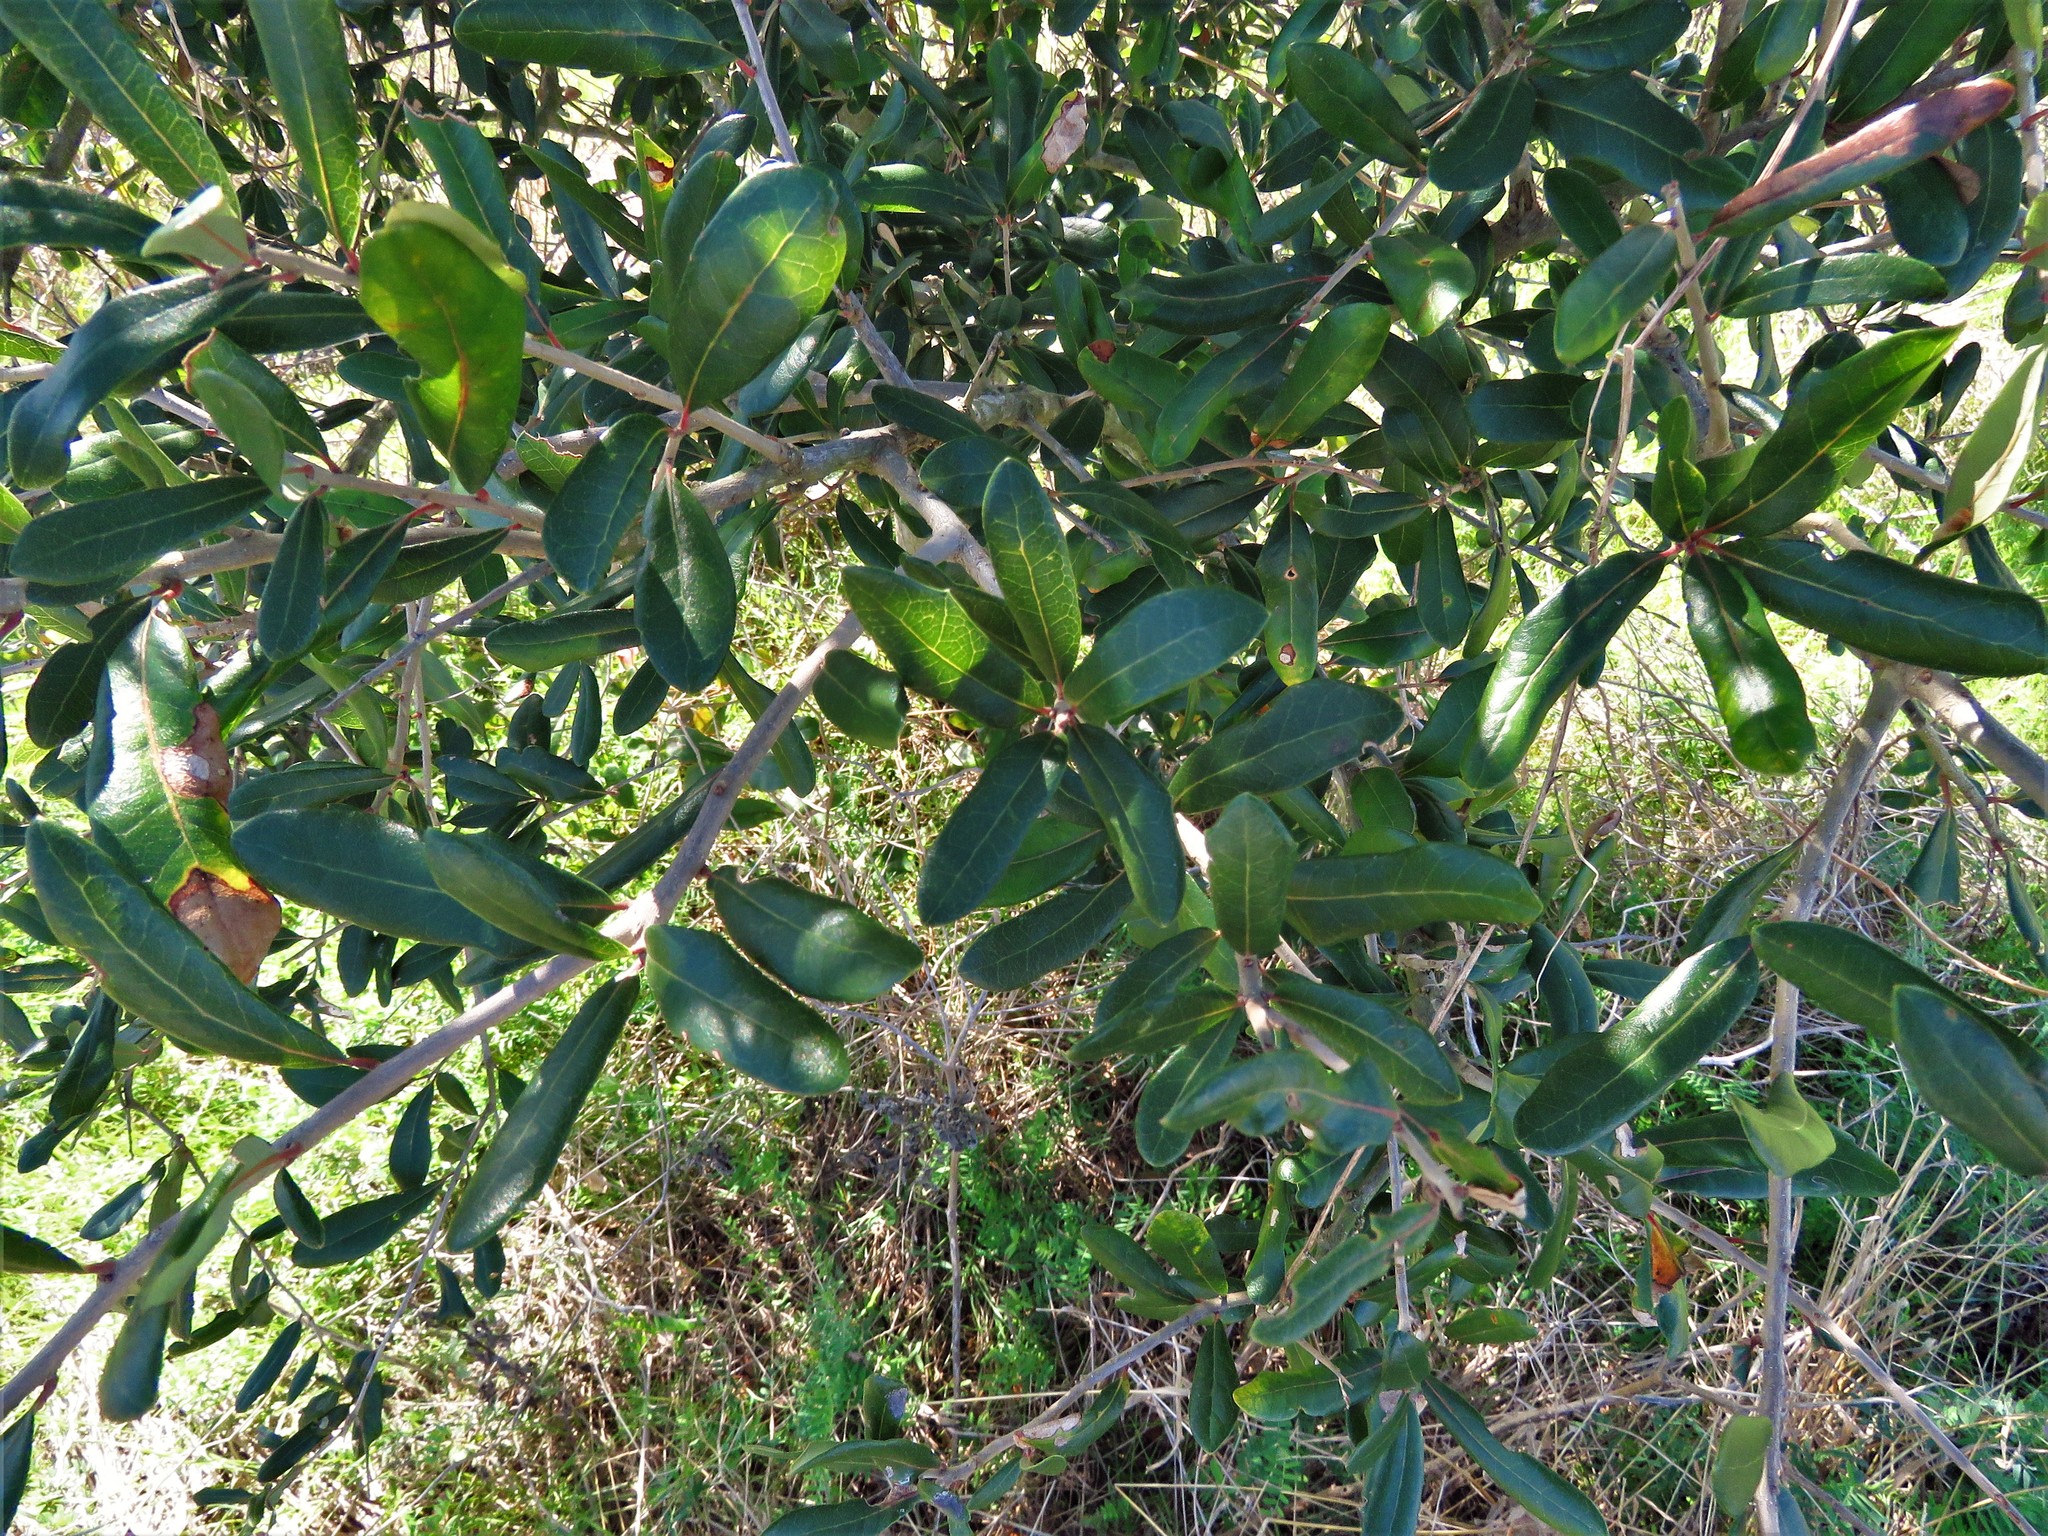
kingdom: Plantae
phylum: Tracheophyta
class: Magnoliopsida
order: Fagales
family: Fagaceae
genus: Quercus
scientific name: Quercus virginiana
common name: Southern live oak
